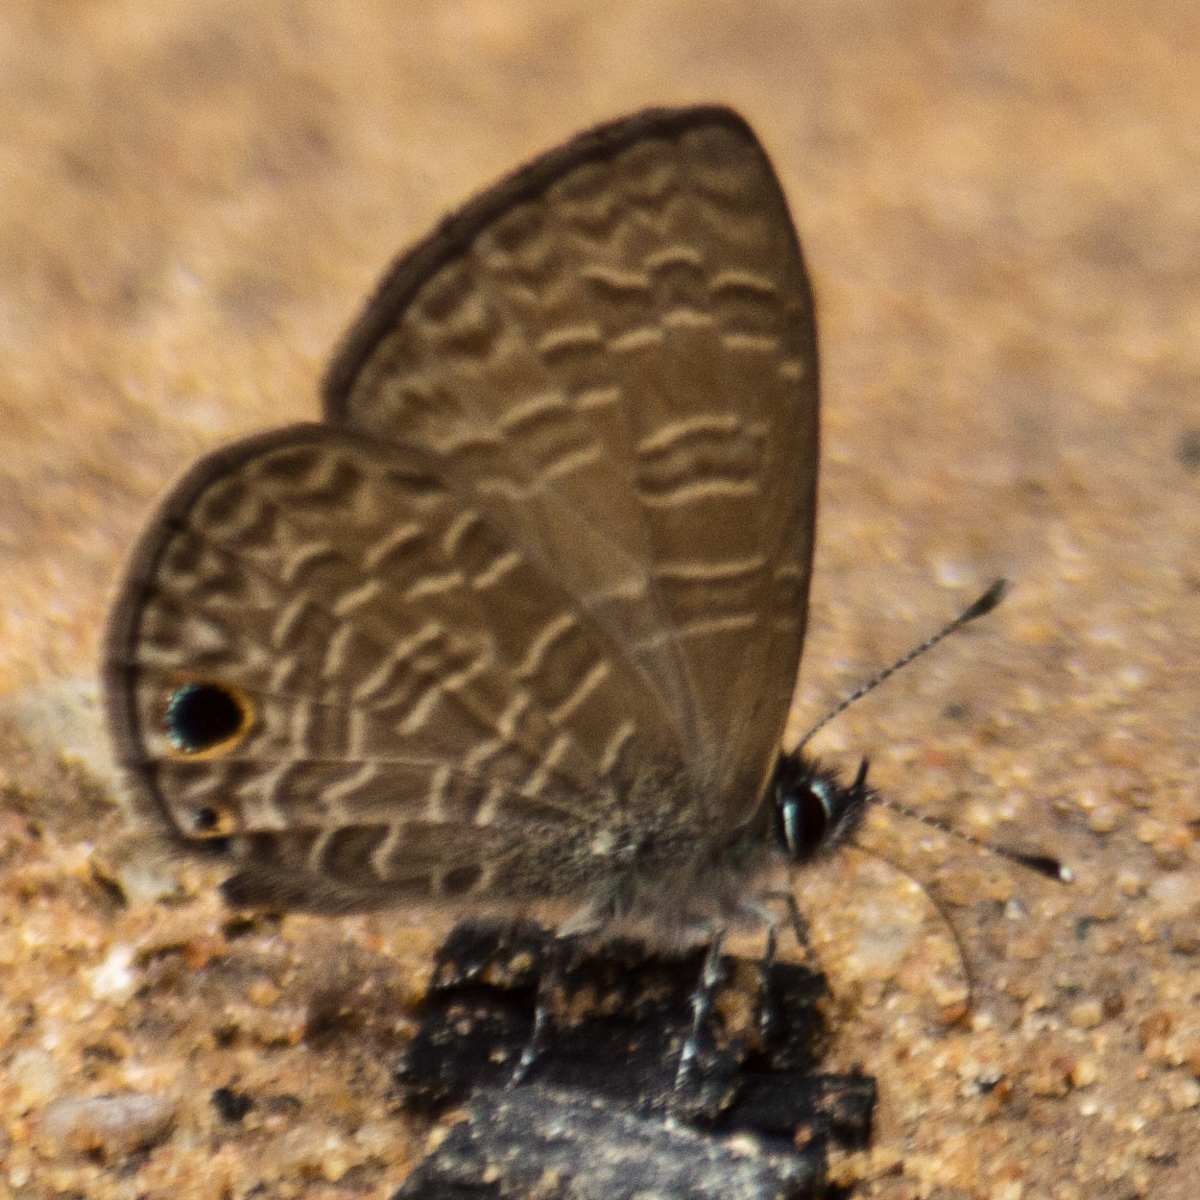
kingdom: Animalia
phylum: Arthropoda
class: Insecta
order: Lepidoptera
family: Lycaenidae
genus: Prosotas
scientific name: Prosotas dubiosa
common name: Tailless lineblue
